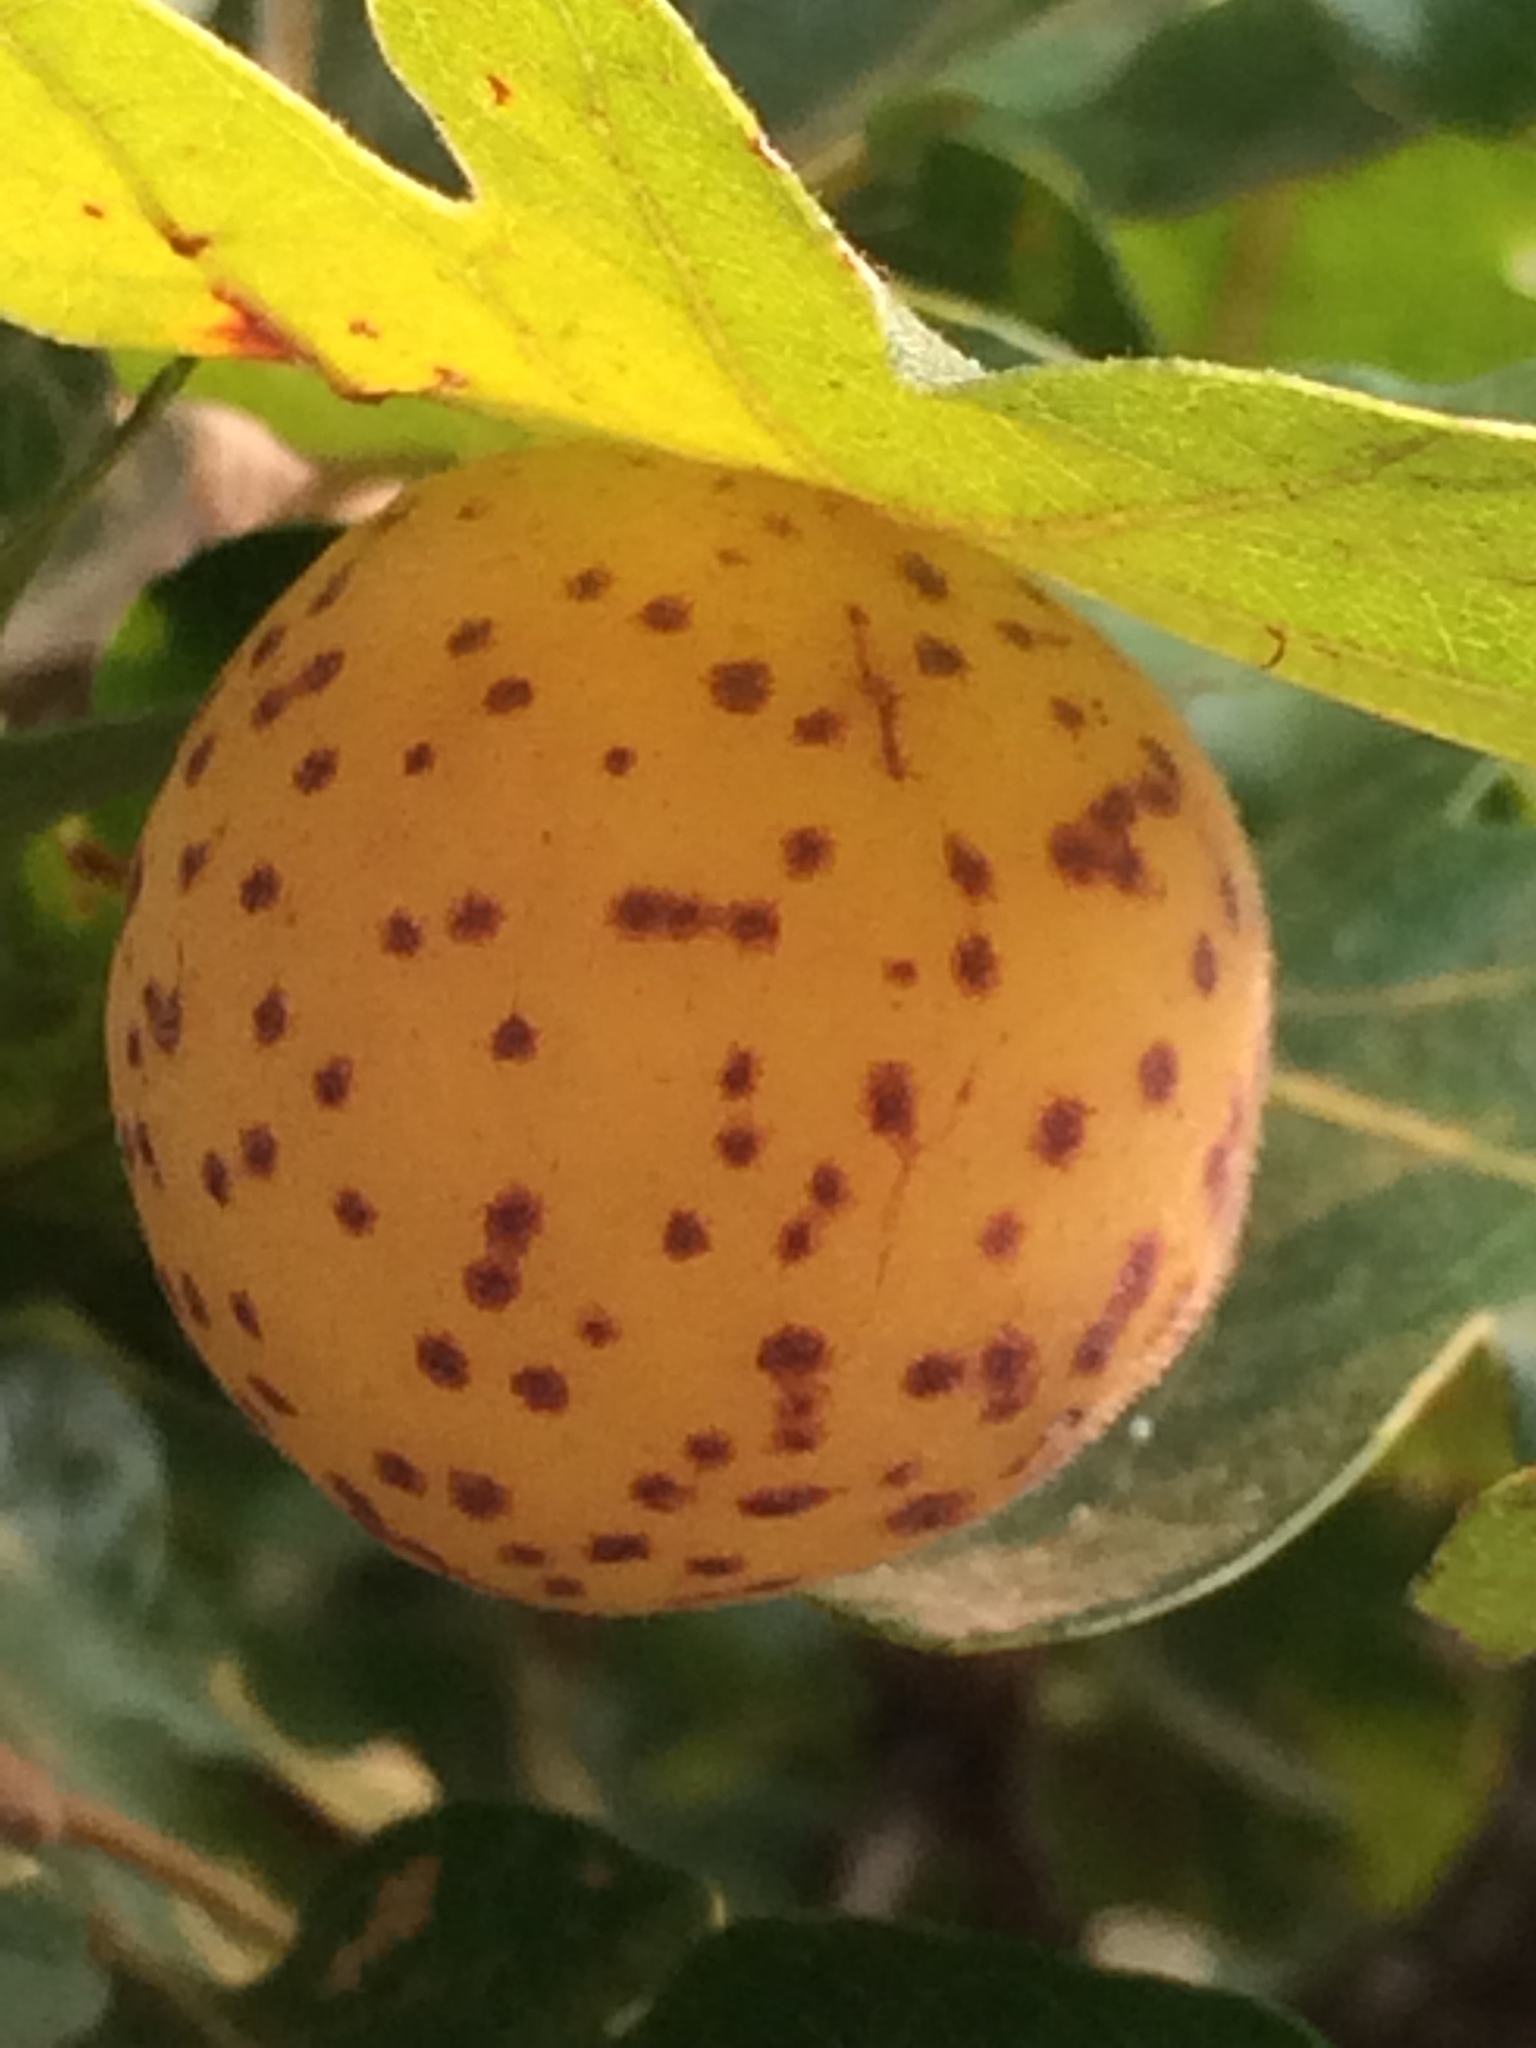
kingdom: Animalia
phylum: Arthropoda
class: Insecta
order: Hymenoptera
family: Cynipidae
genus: Cynips
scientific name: Cynips
